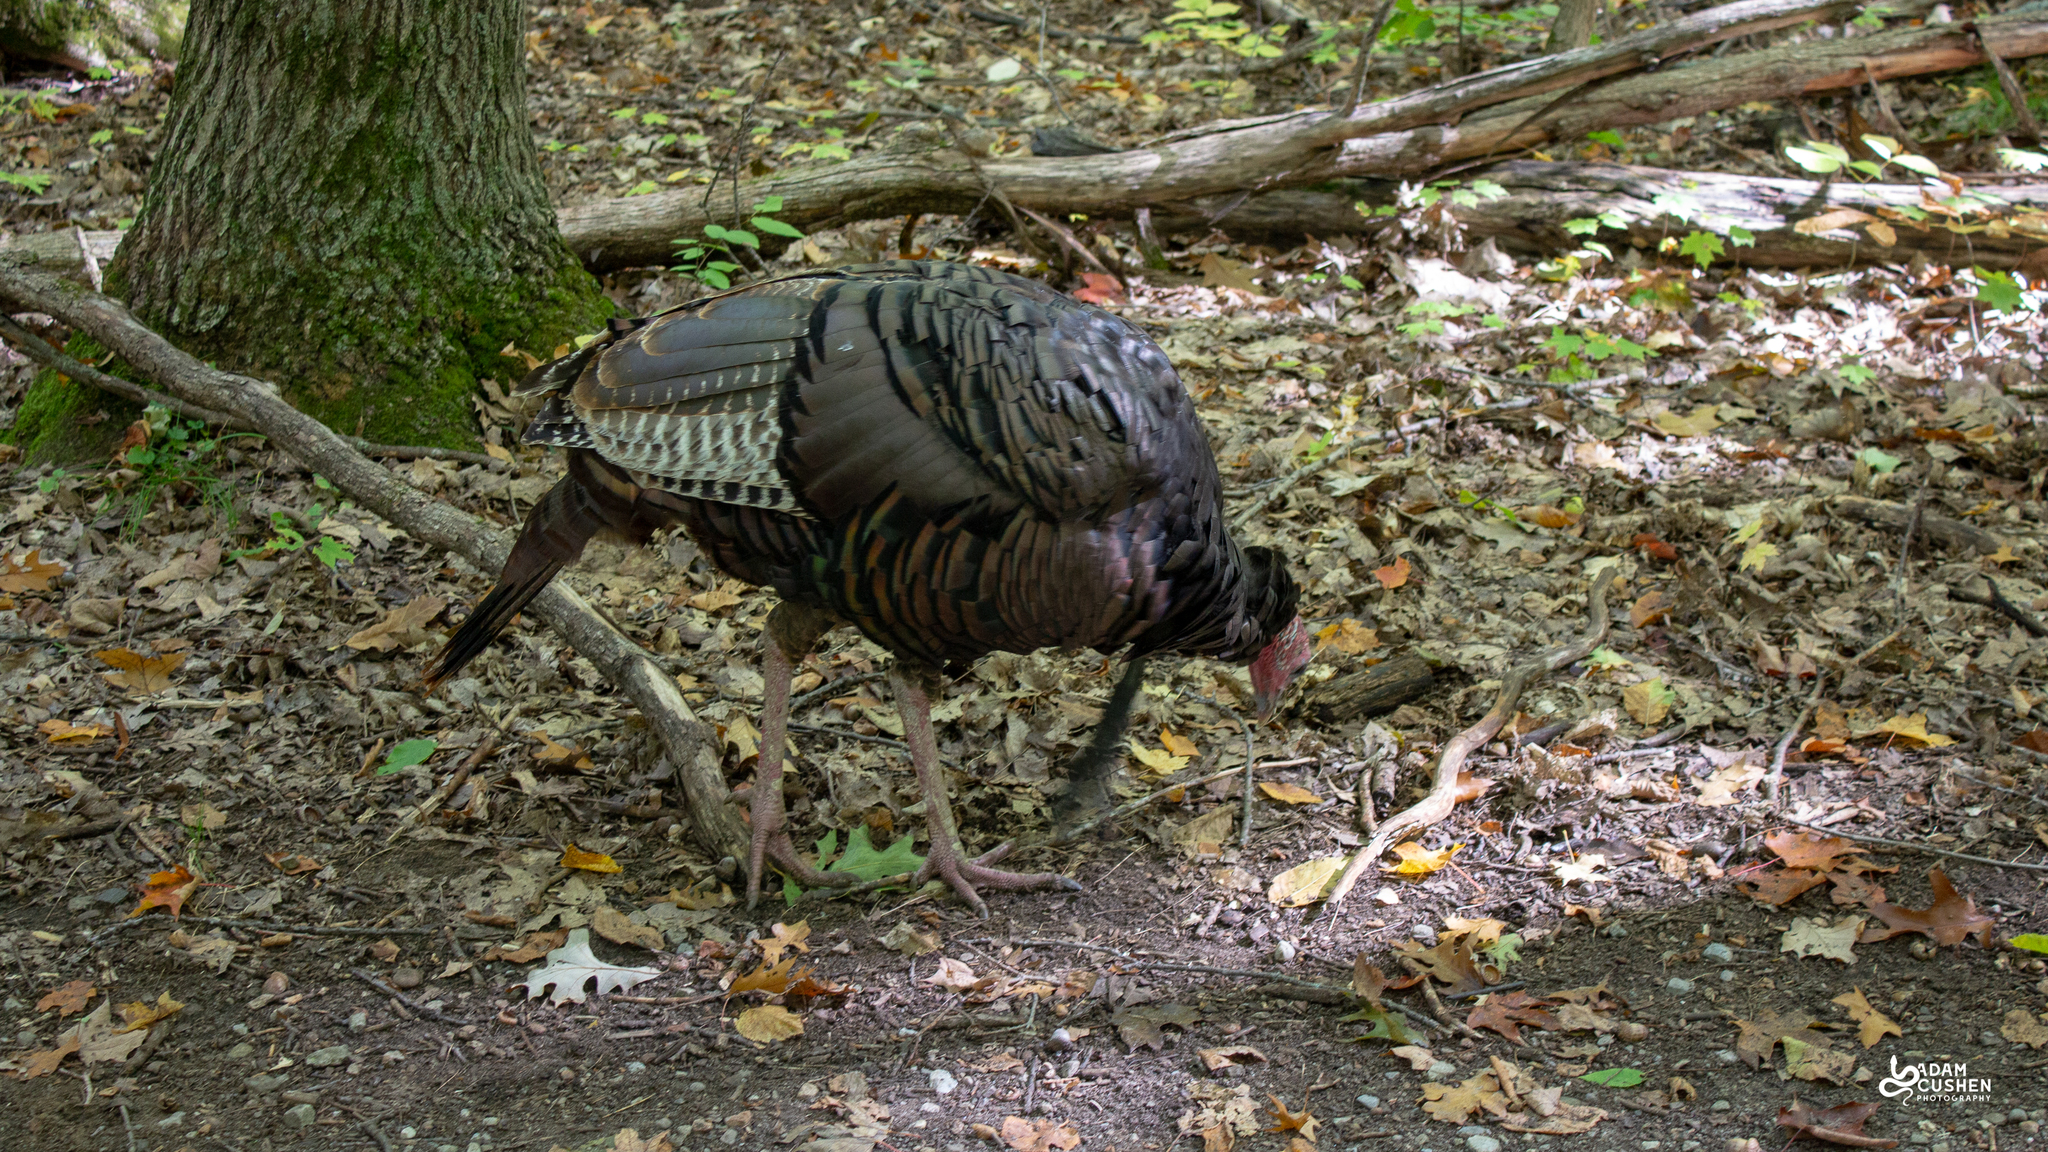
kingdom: Animalia
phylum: Chordata
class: Aves
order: Galliformes
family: Phasianidae
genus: Meleagris
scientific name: Meleagris gallopavo
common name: Wild turkey
